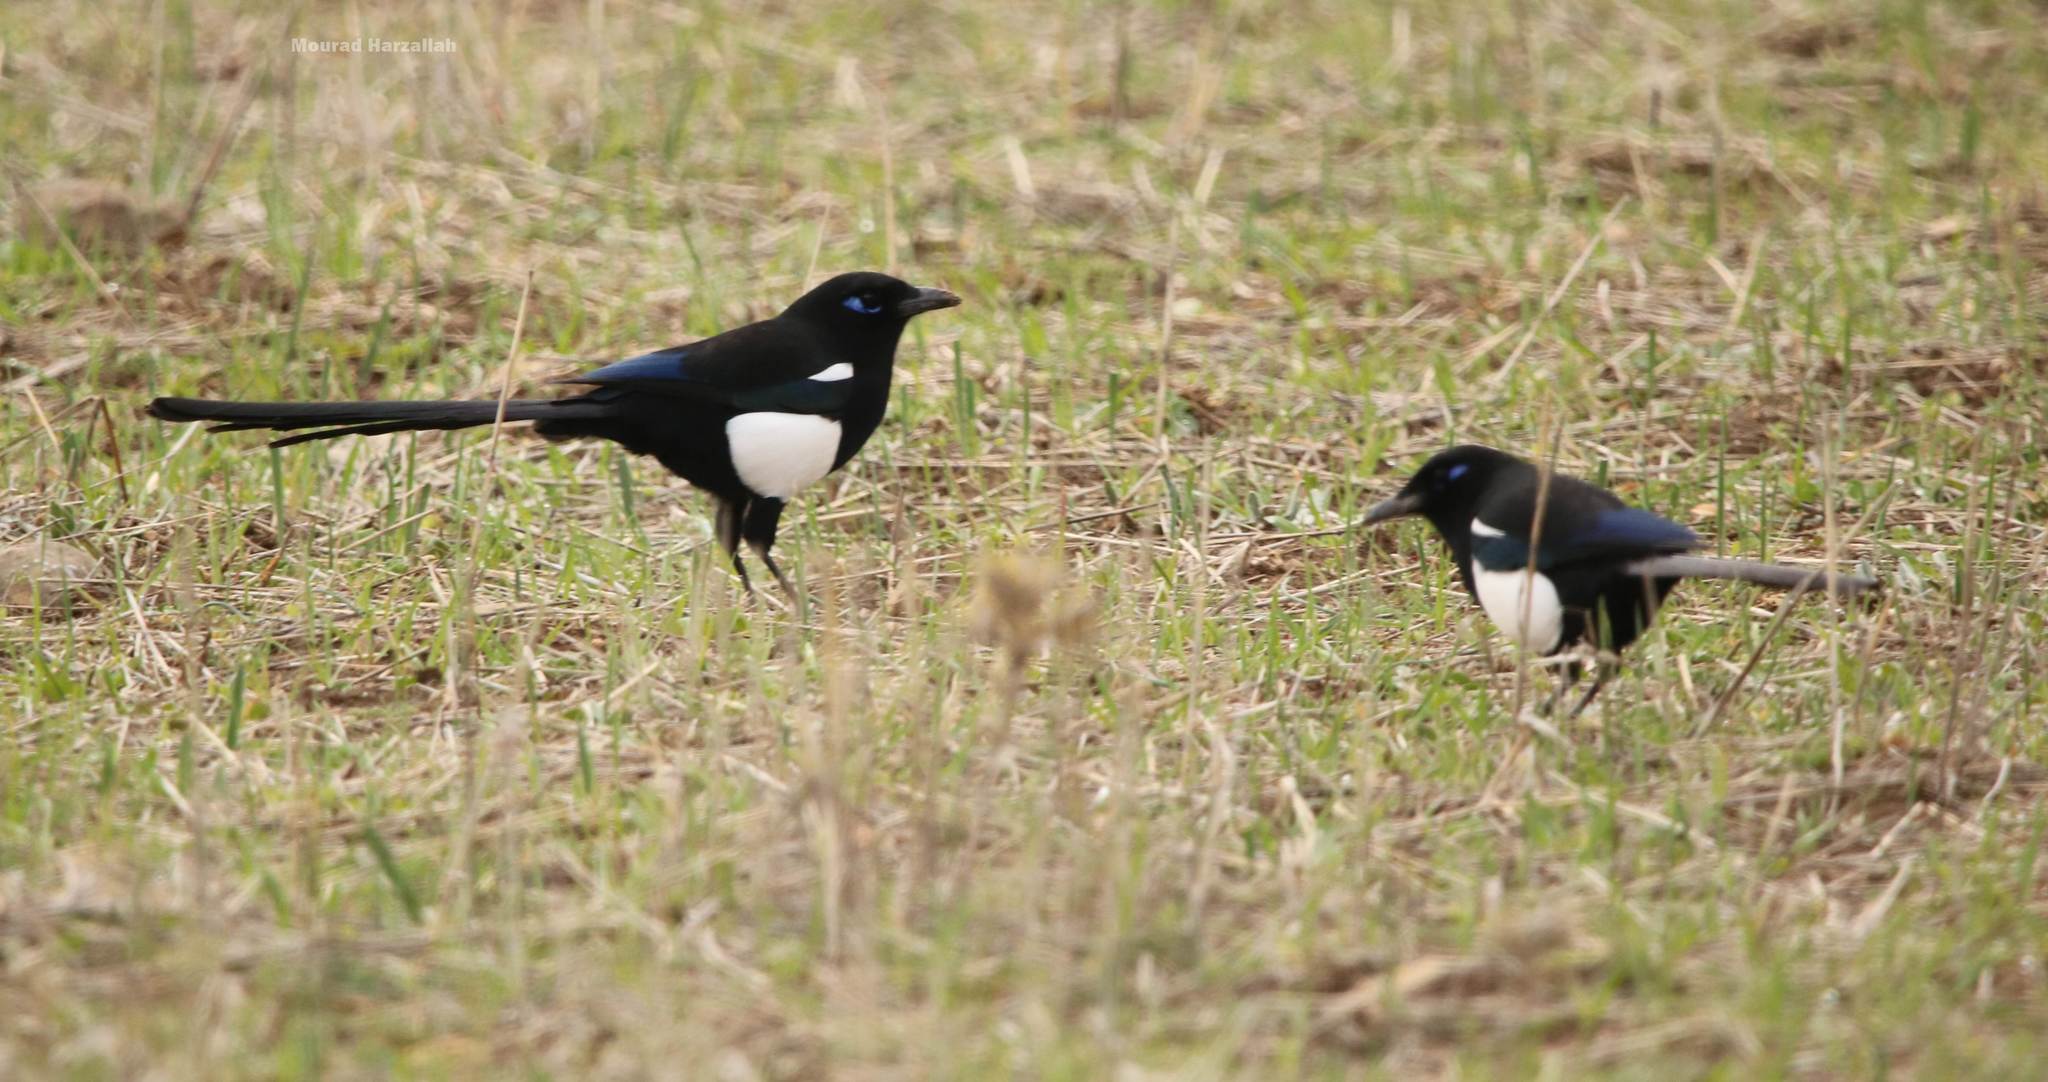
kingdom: Animalia
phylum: Chordata
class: Aves
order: Passeriformes
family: Corvidae
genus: Pica
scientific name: Pica mauritanica
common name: Maghreb magpie
